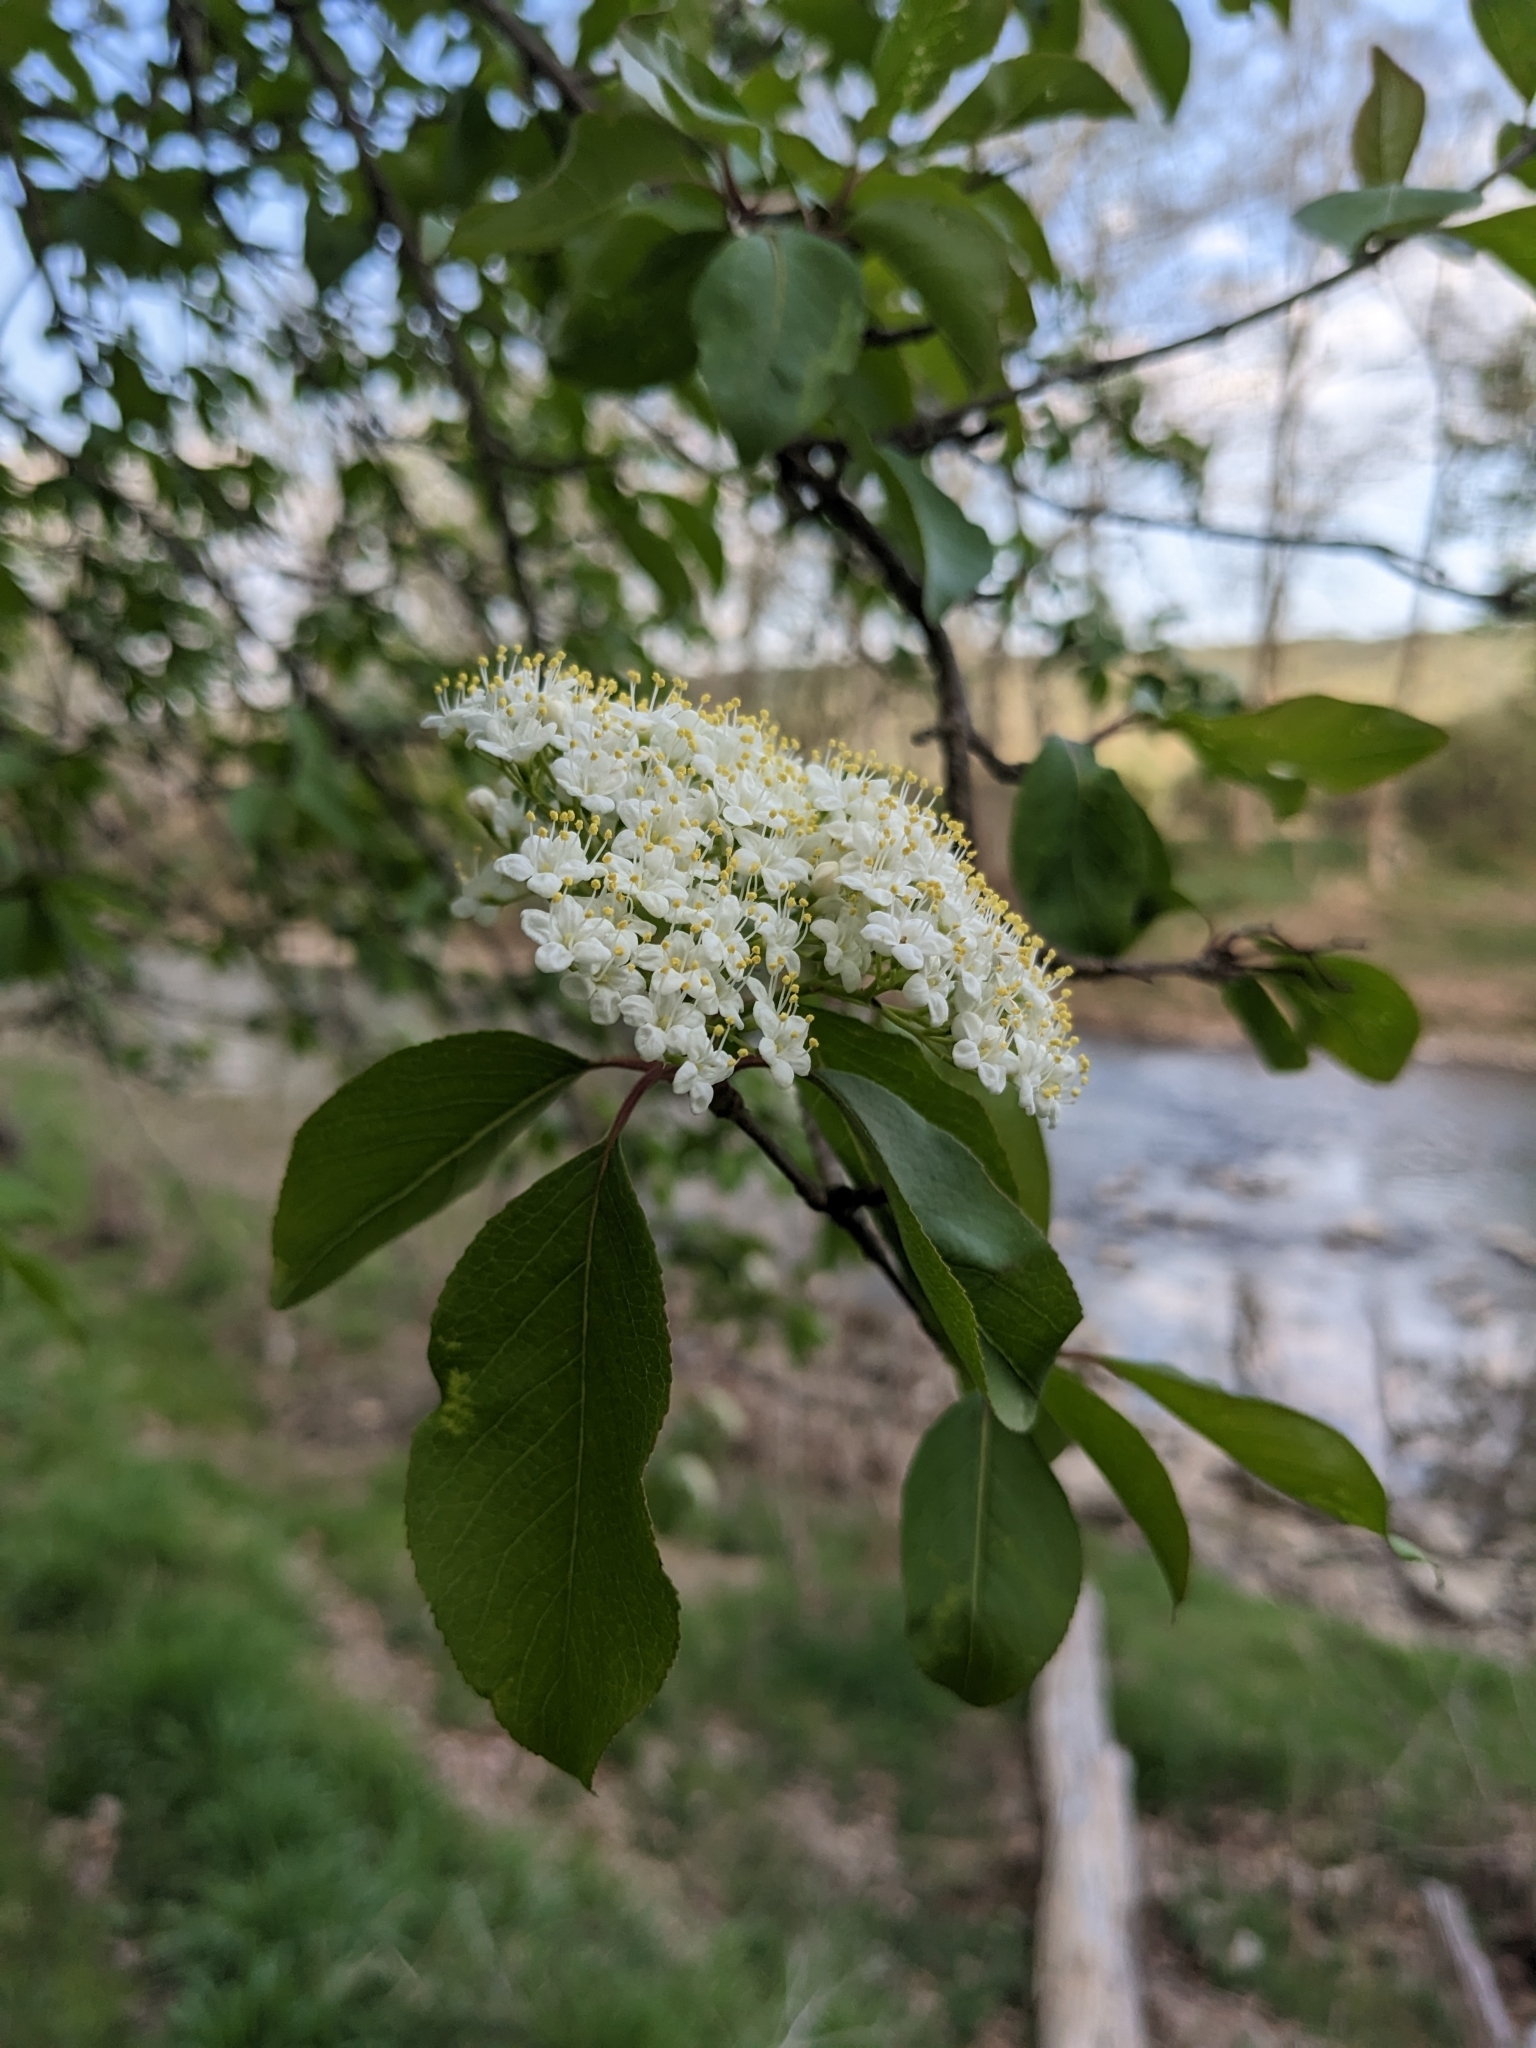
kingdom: Plantae
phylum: Tracheophyta
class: Magnoliopsida
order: Dipsacales
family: Viburnaceae
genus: Viburnum
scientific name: Viburnum prunifolium
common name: Black haw
